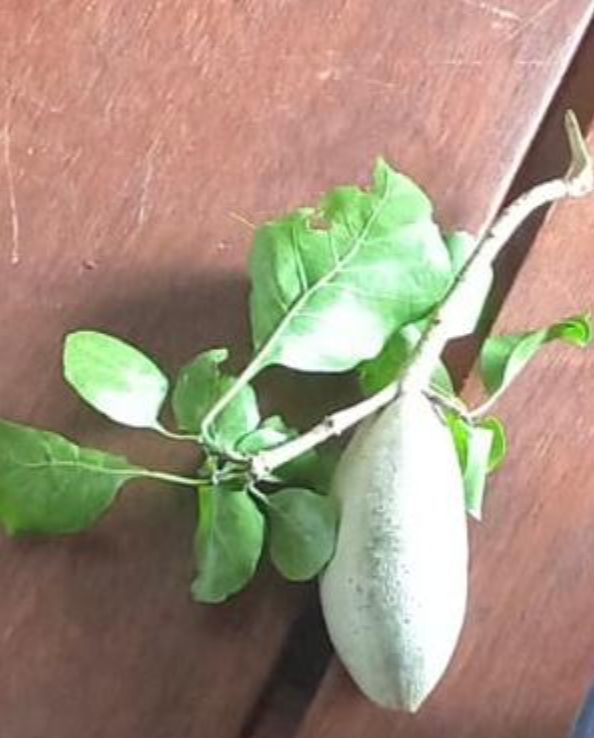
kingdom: Plantae
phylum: Tracheophyta
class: Magnoliopsida
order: Gentianales
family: Rubiaceae
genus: Gardenia
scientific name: Gardenia thunbergia
